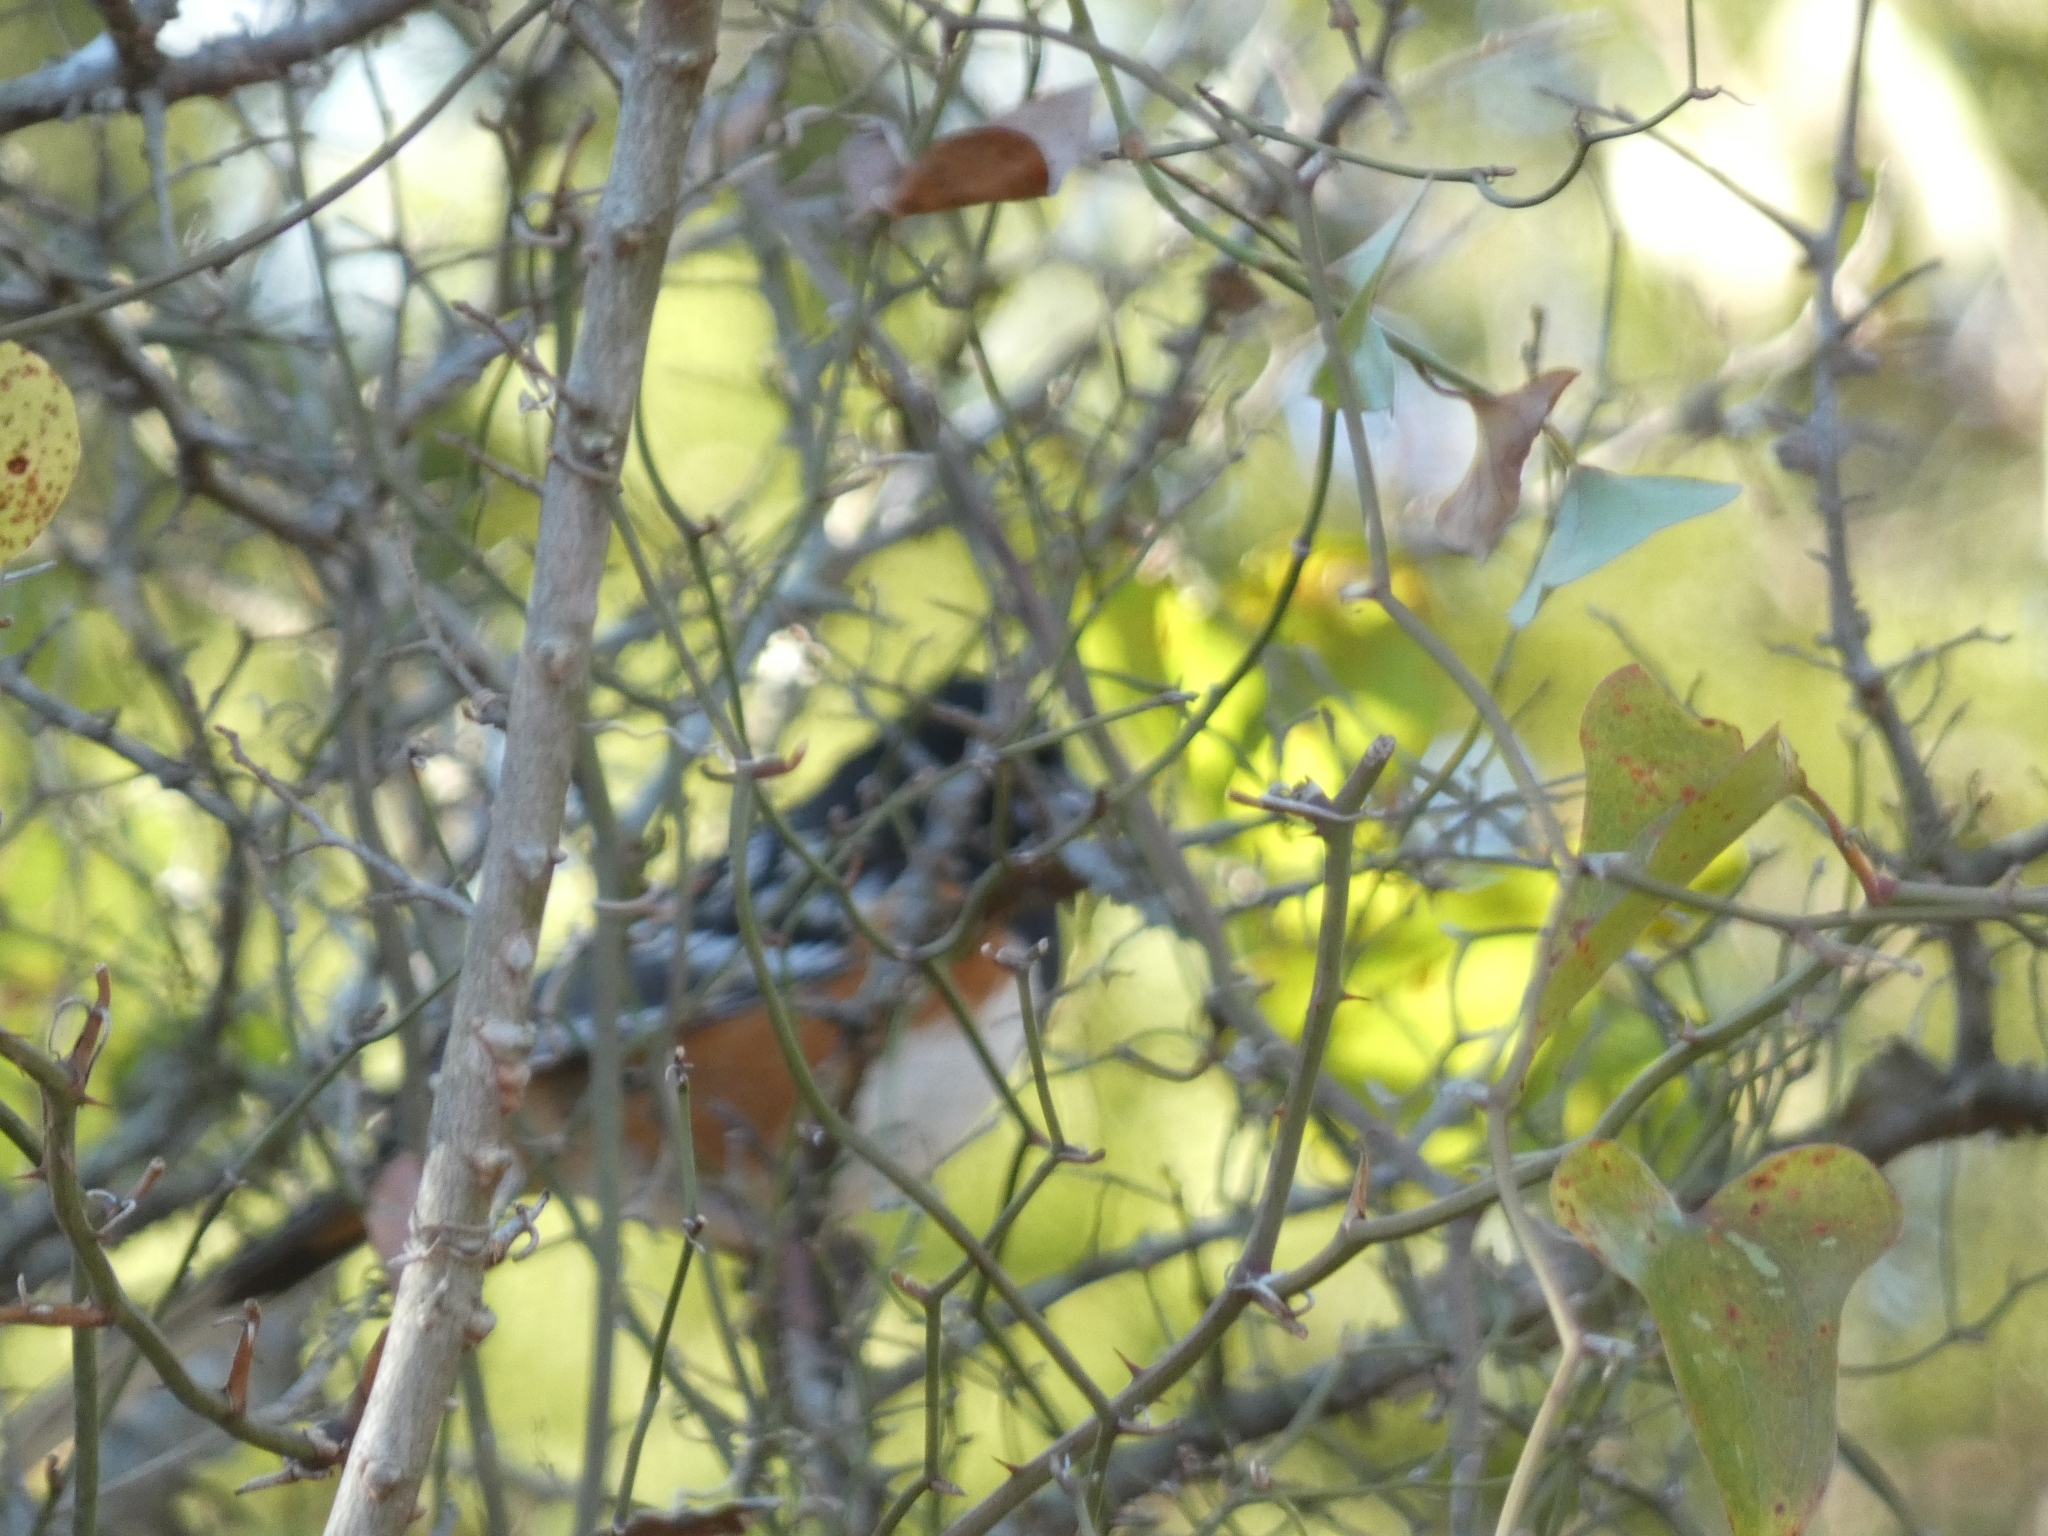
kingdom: Animalia
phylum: Chordata
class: Aves
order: Passeriformes
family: Passerellidae
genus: Pipilo
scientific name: Pipilo maculatus
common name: Spotted towhee
